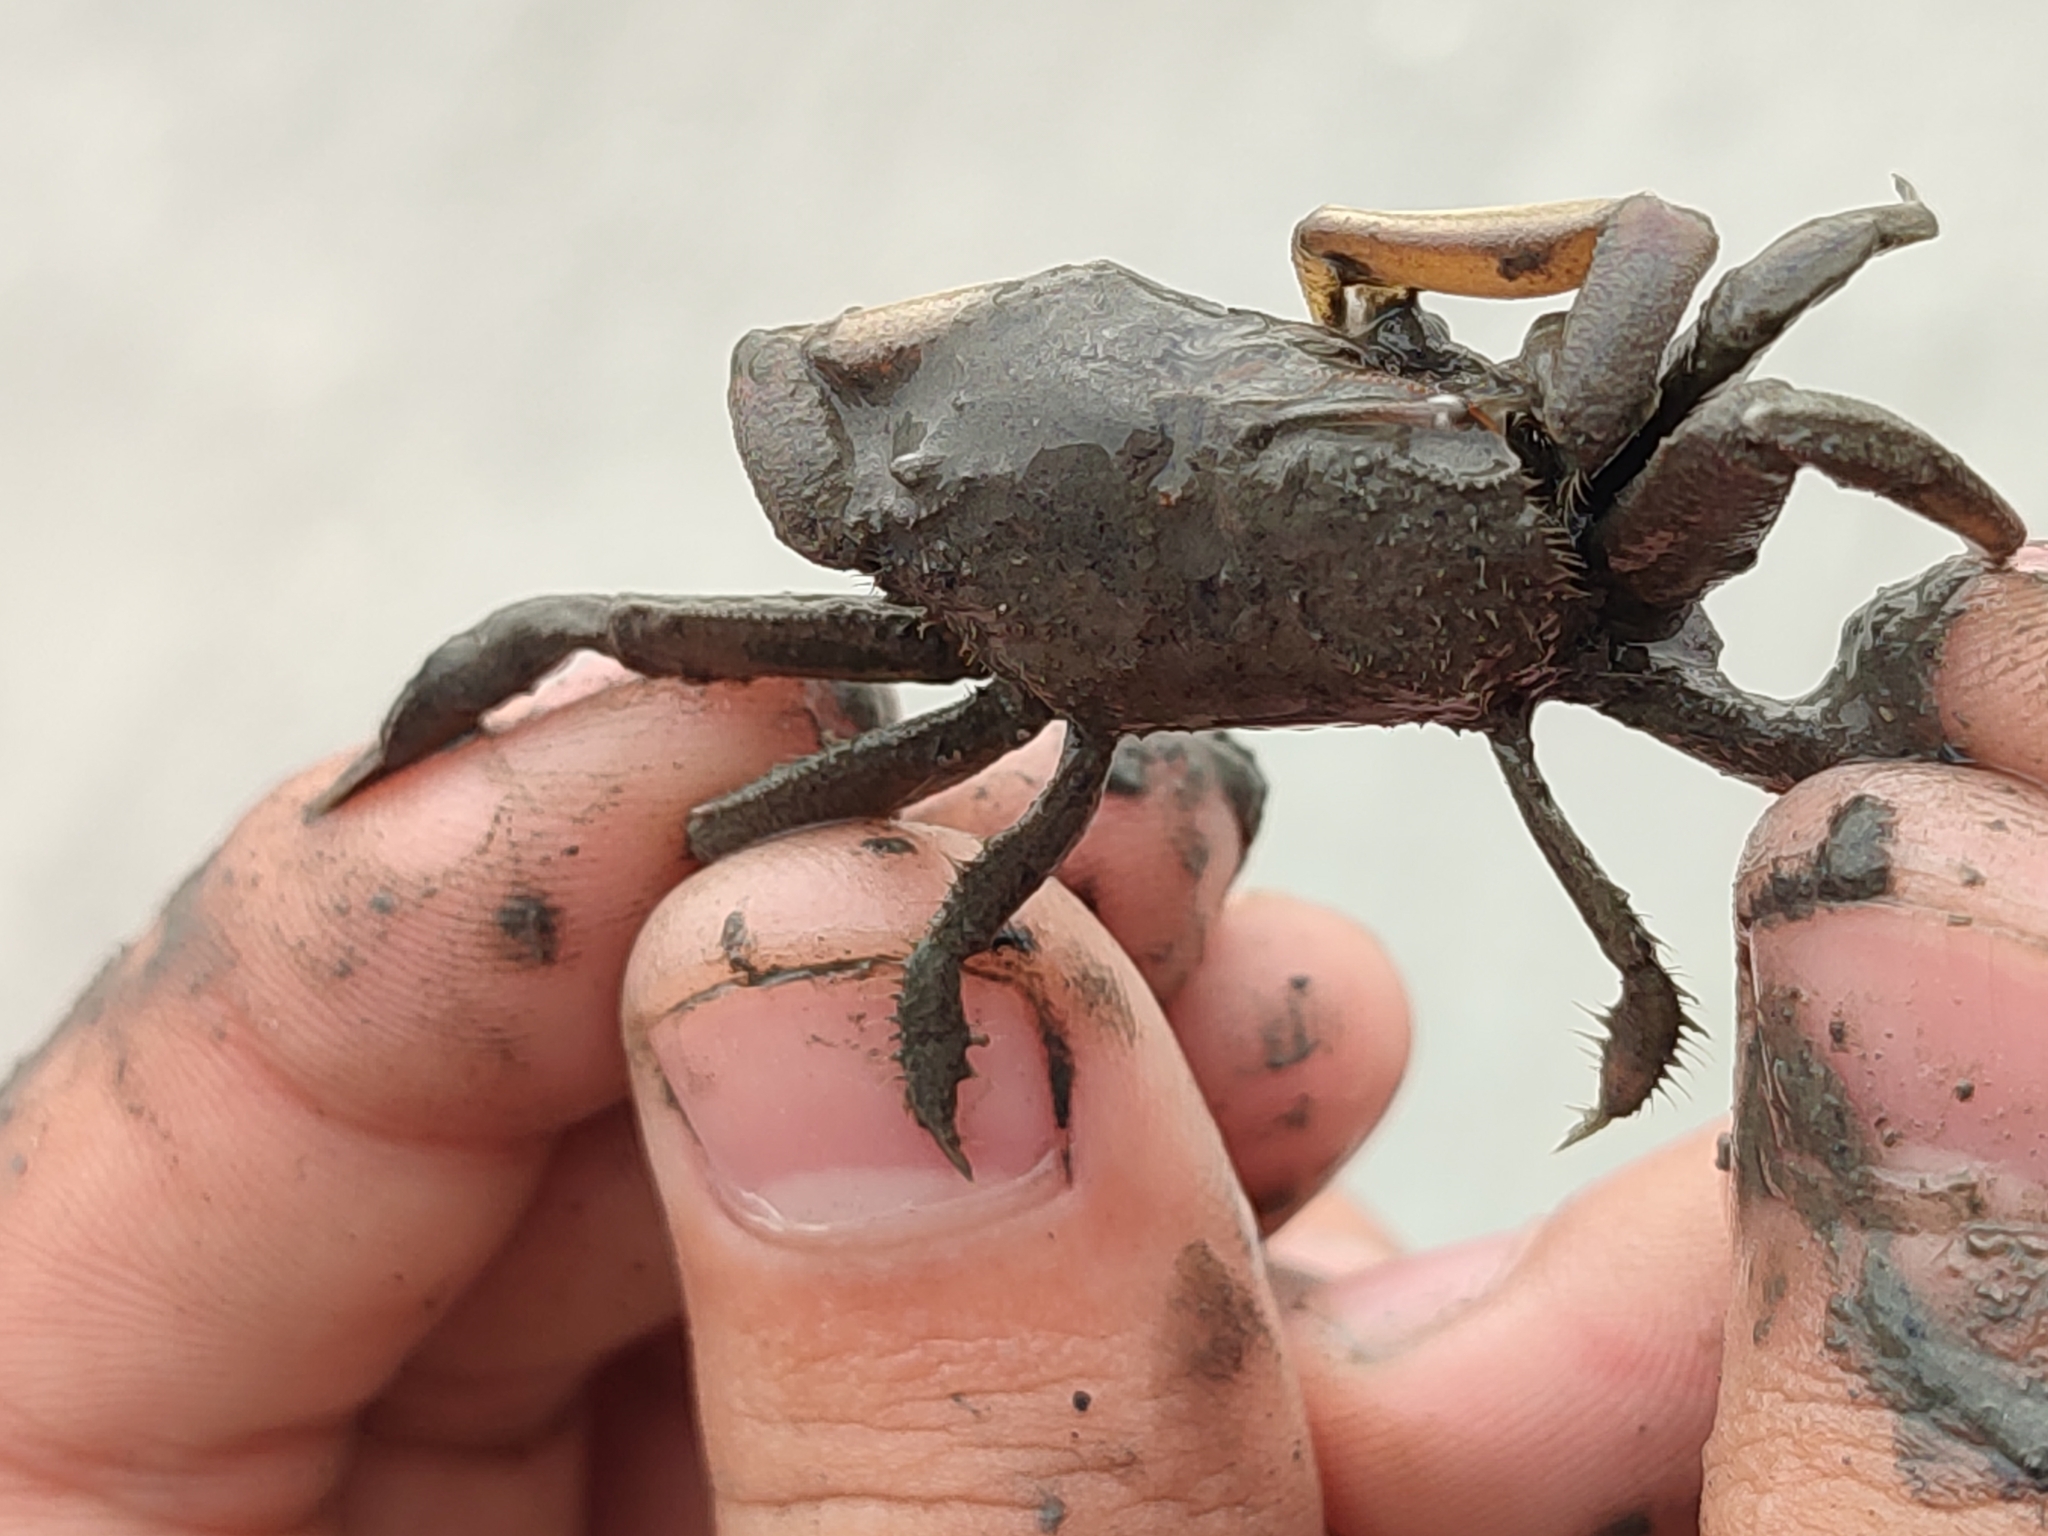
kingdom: Animalia
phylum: Arthropoda
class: Malacostraca
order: Decapoda
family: Macrophthalmidae
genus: Macrophthalmus
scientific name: Macrophthalmus banzai
